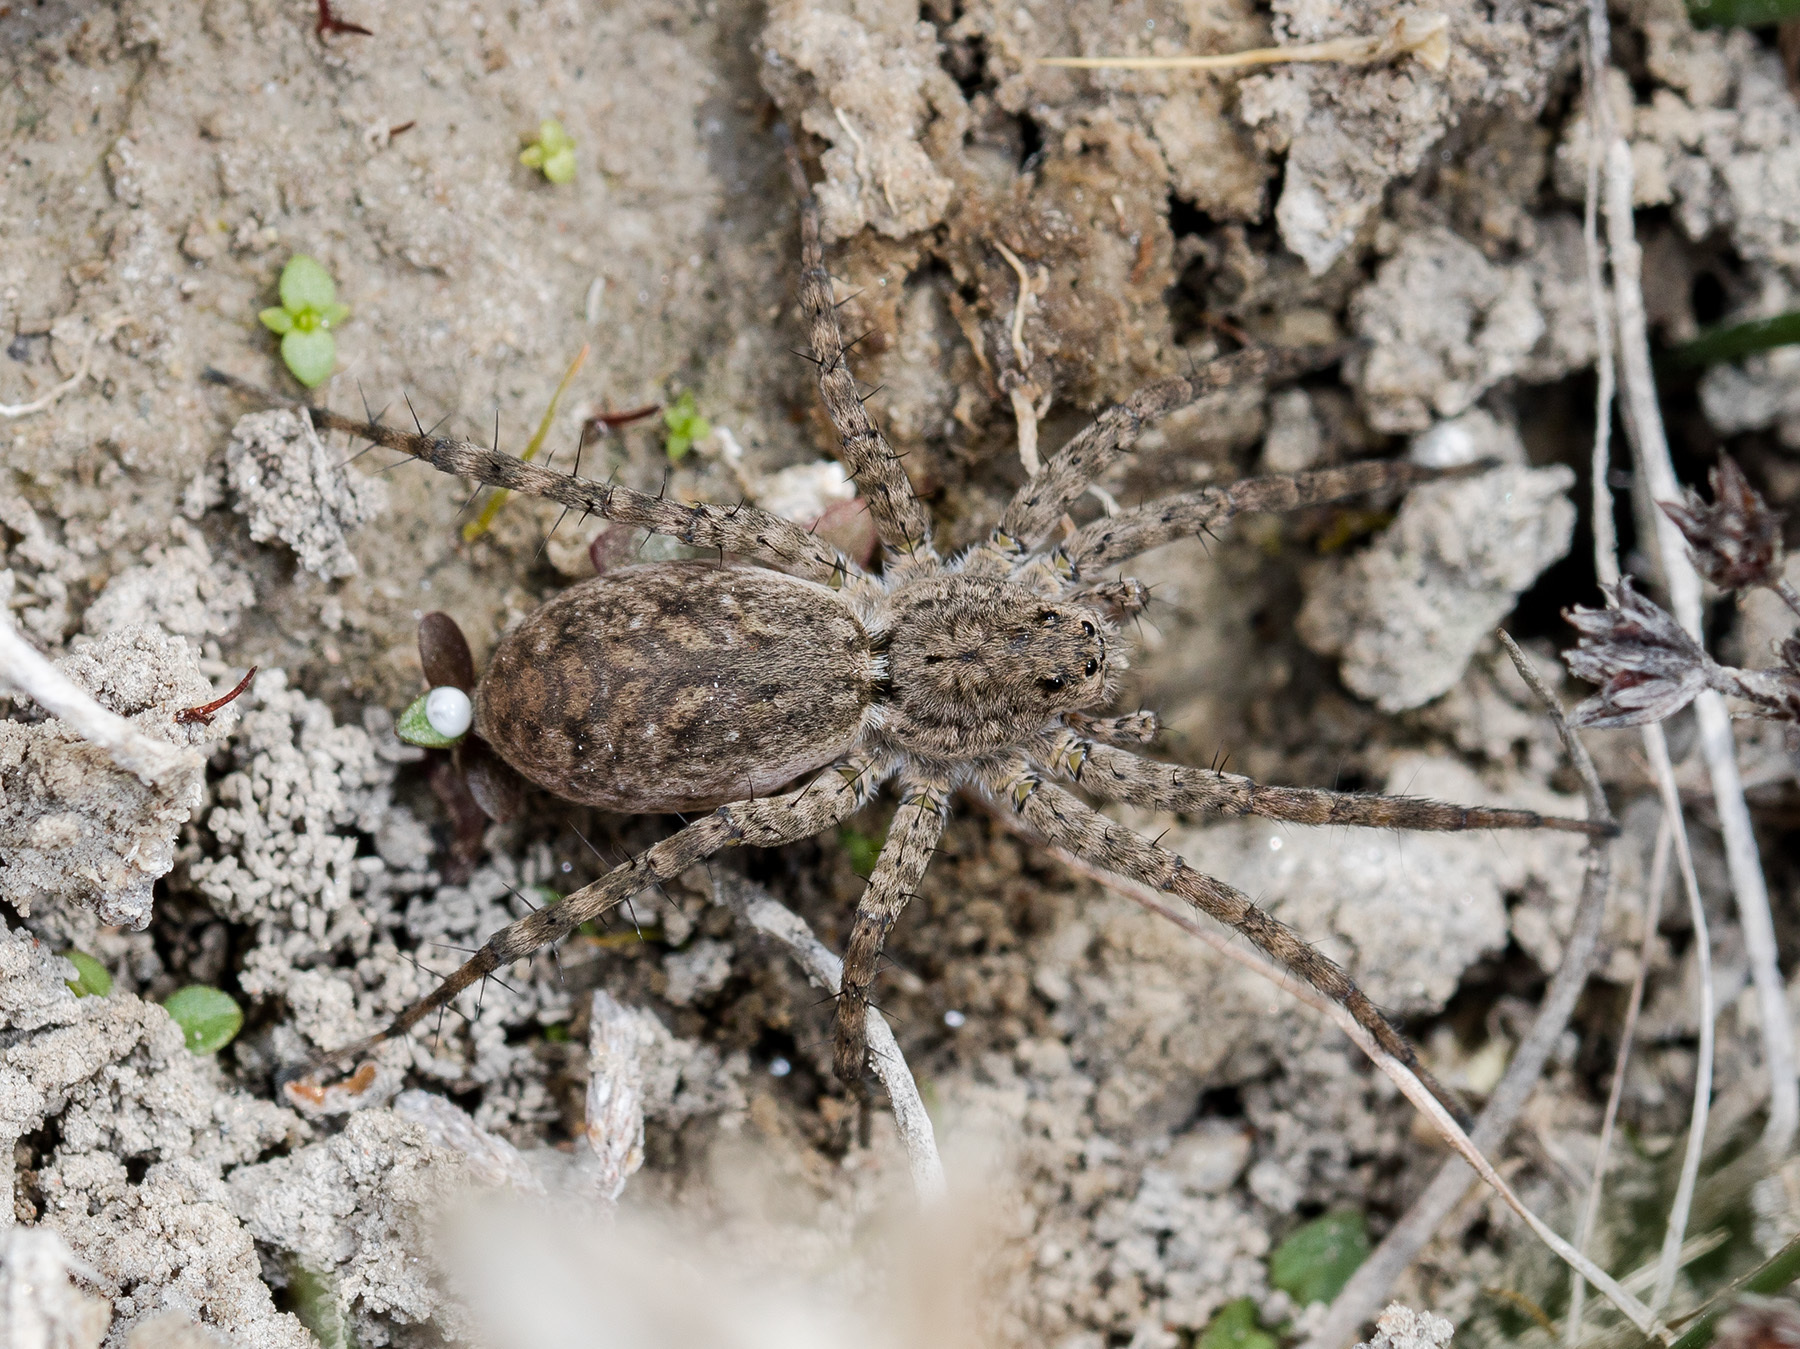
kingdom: Animalia
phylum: Arthropoda
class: Arachnida
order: Araneae
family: Lycosidae
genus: Pardosa
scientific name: Pardosa nebulosa
